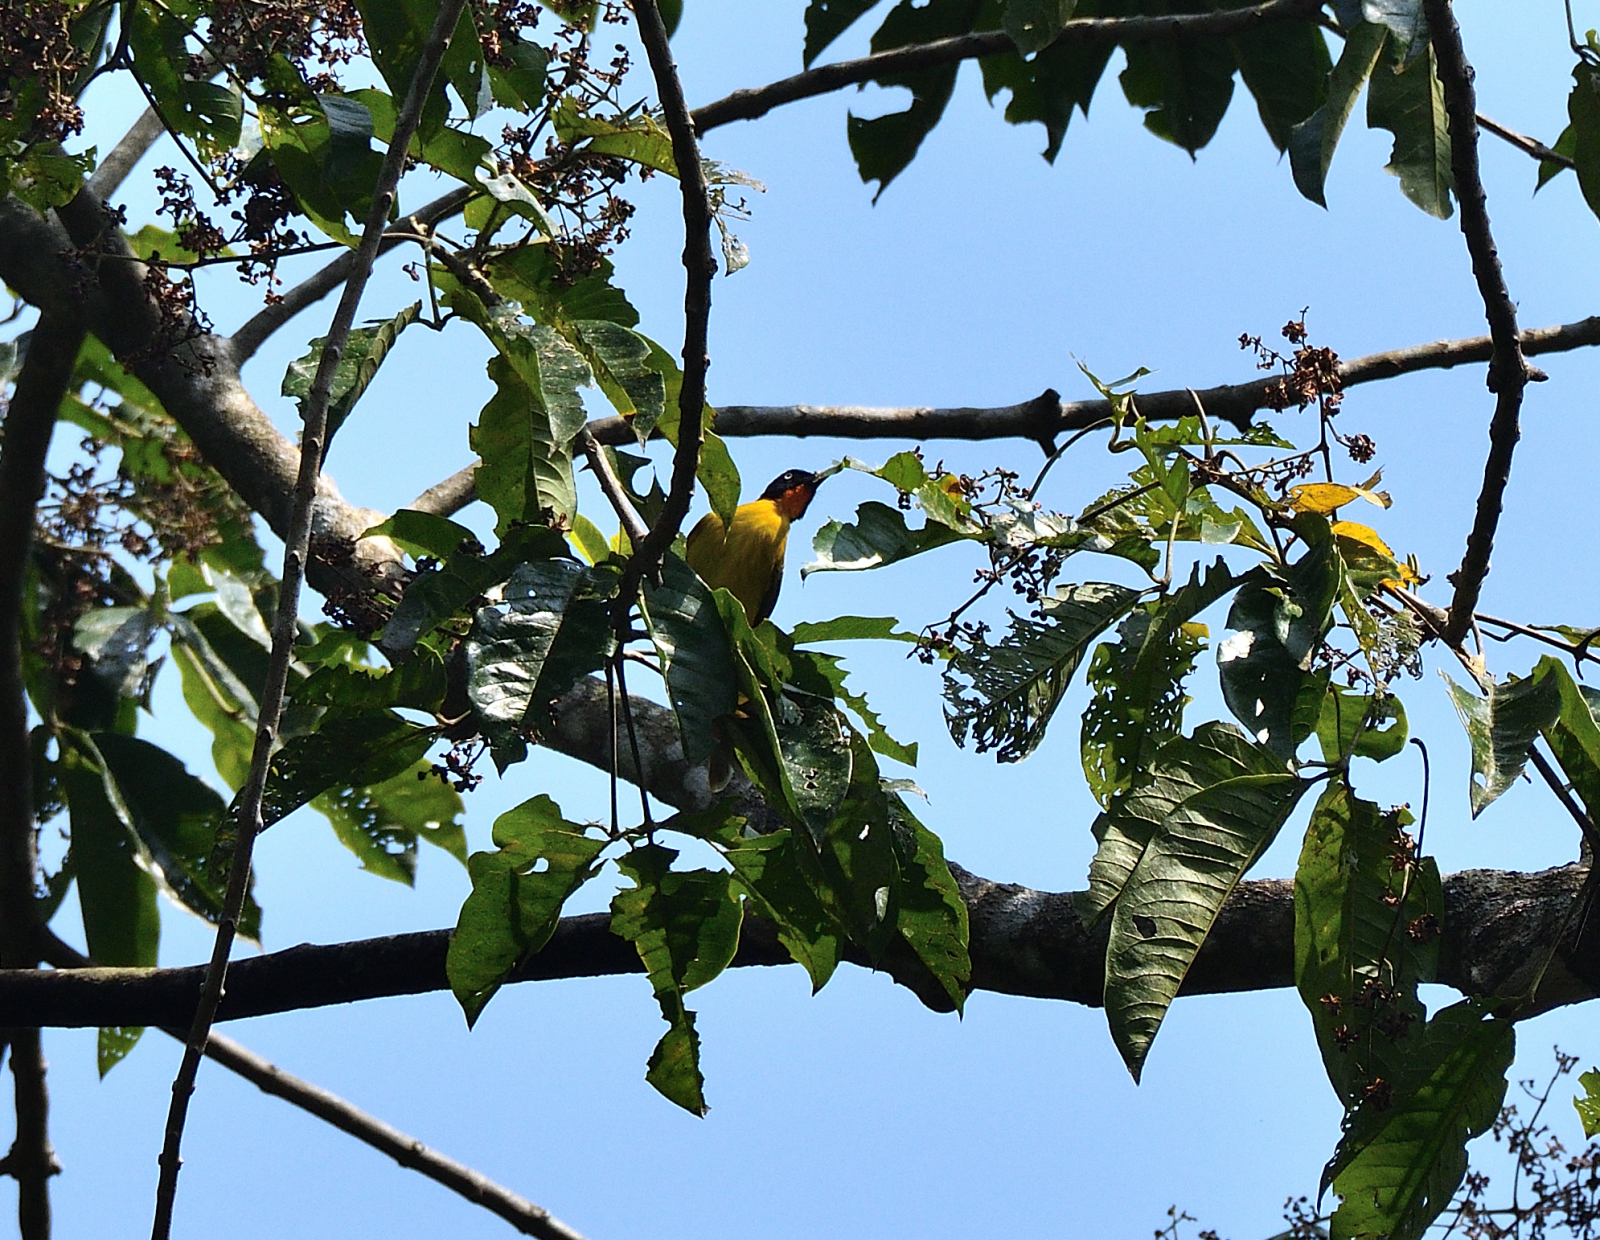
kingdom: Animalia
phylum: Chordata
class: Aves
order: Passeriformes
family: Pycnonotidae
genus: Pycnonotus
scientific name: Pycnonotus gularis
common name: Flame-throated bulbul
